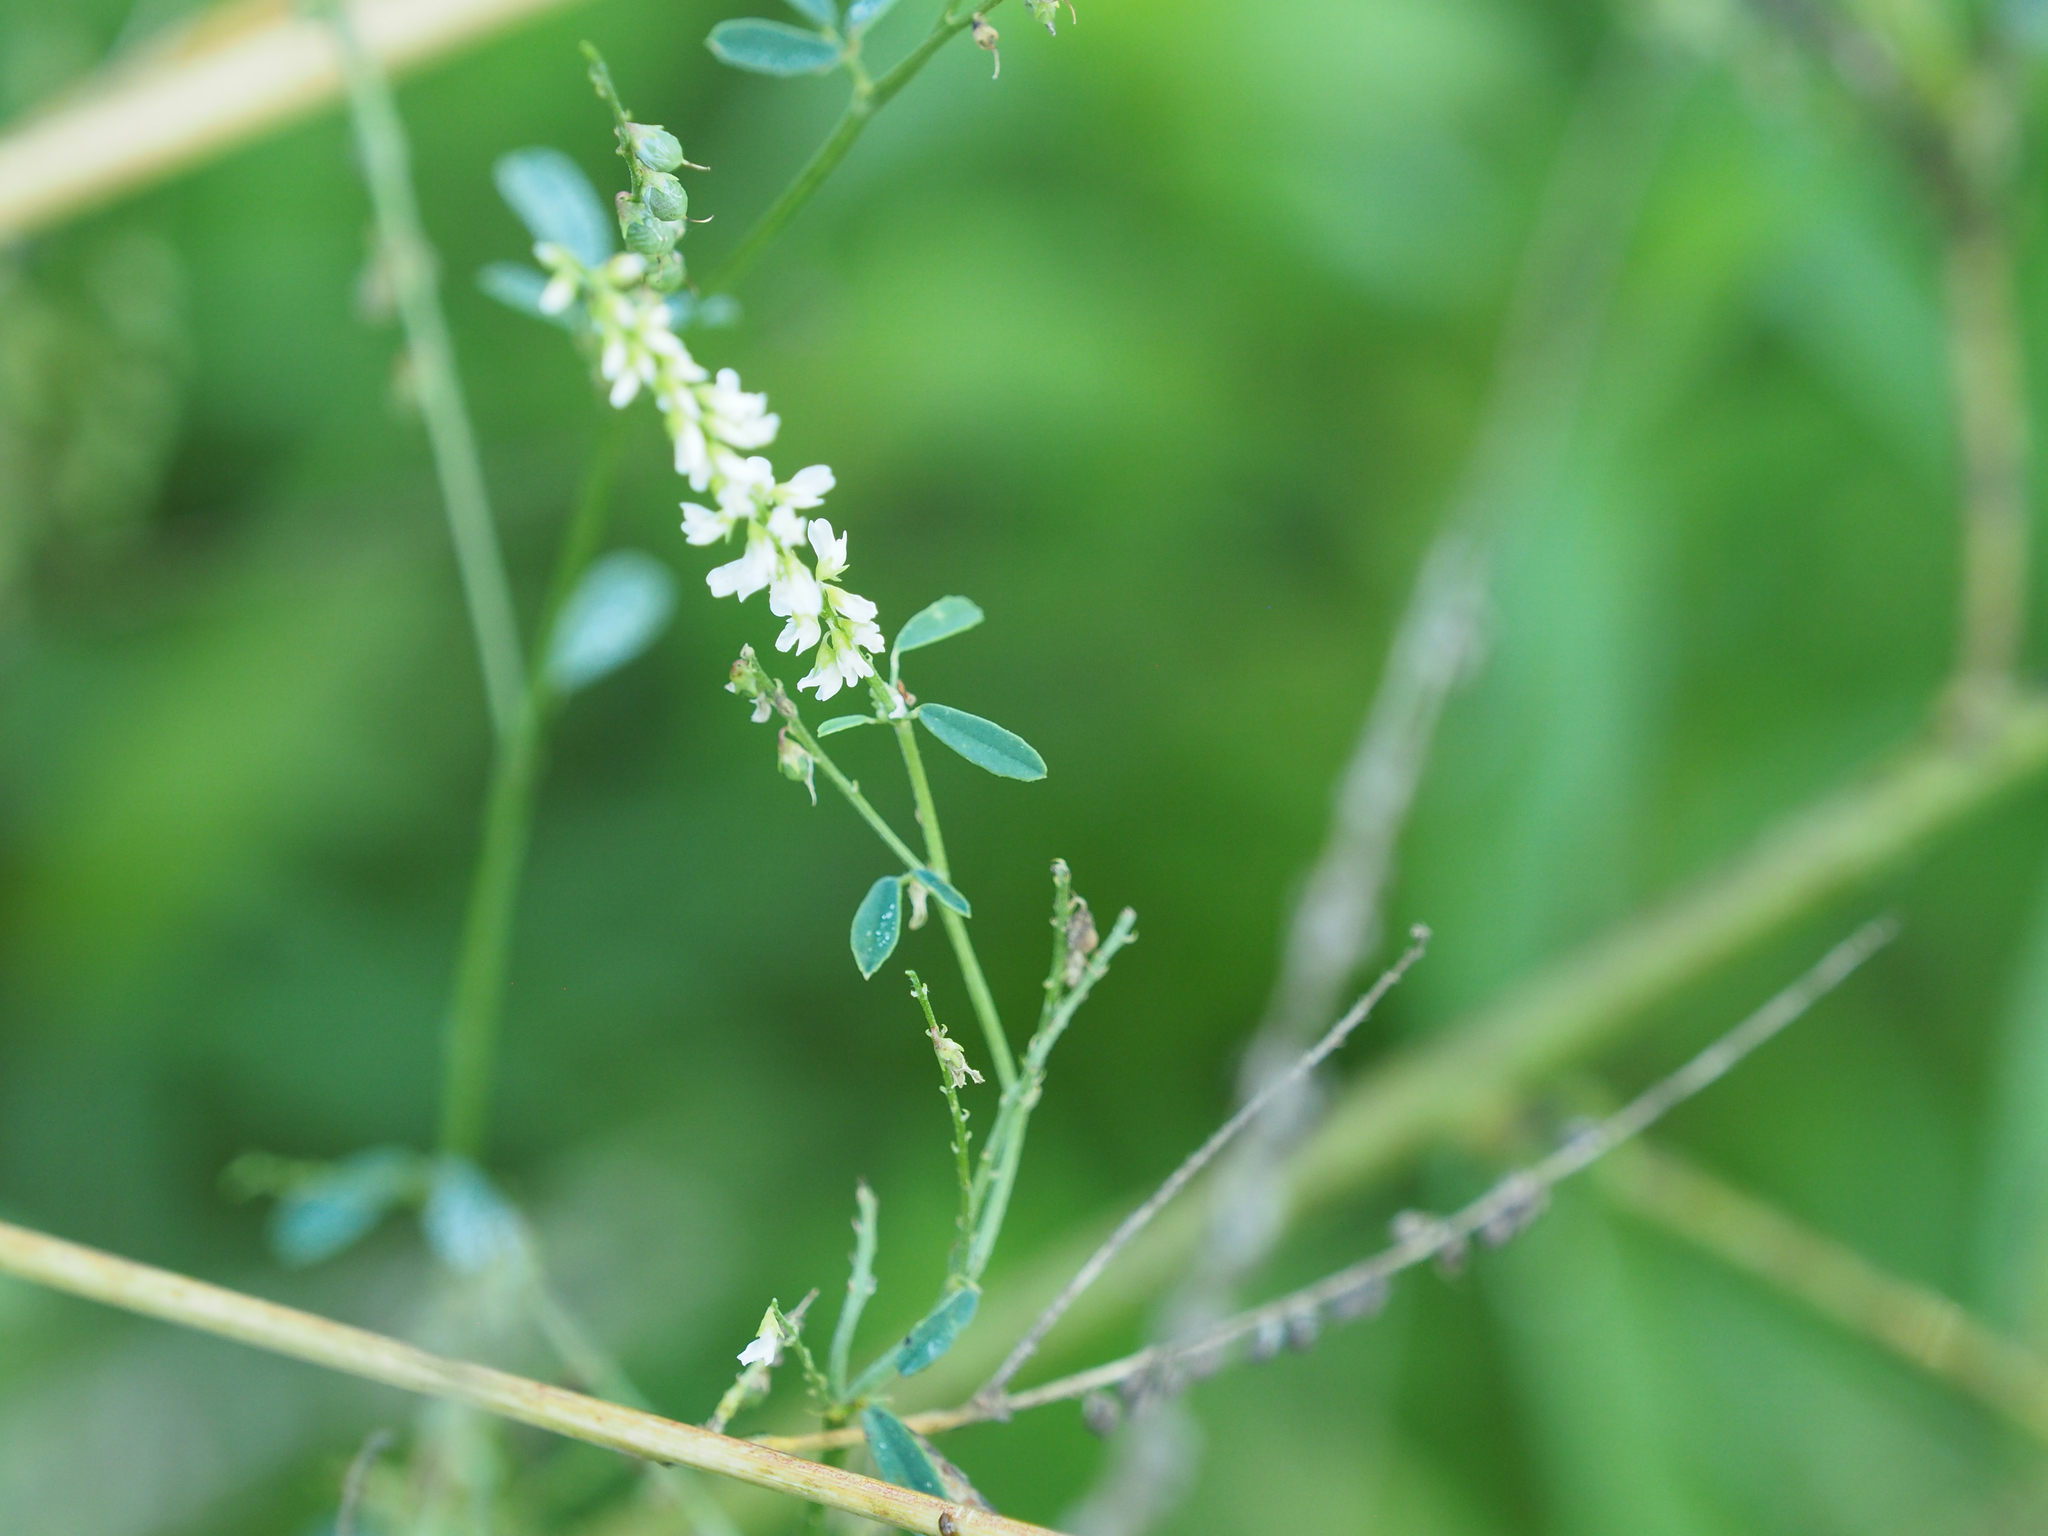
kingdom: Plantae
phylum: Tracheophyta
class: Magnoliopsida
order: Fabales
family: Fabaceae
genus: Melilotus
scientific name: Melilotus albus
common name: White melilot
